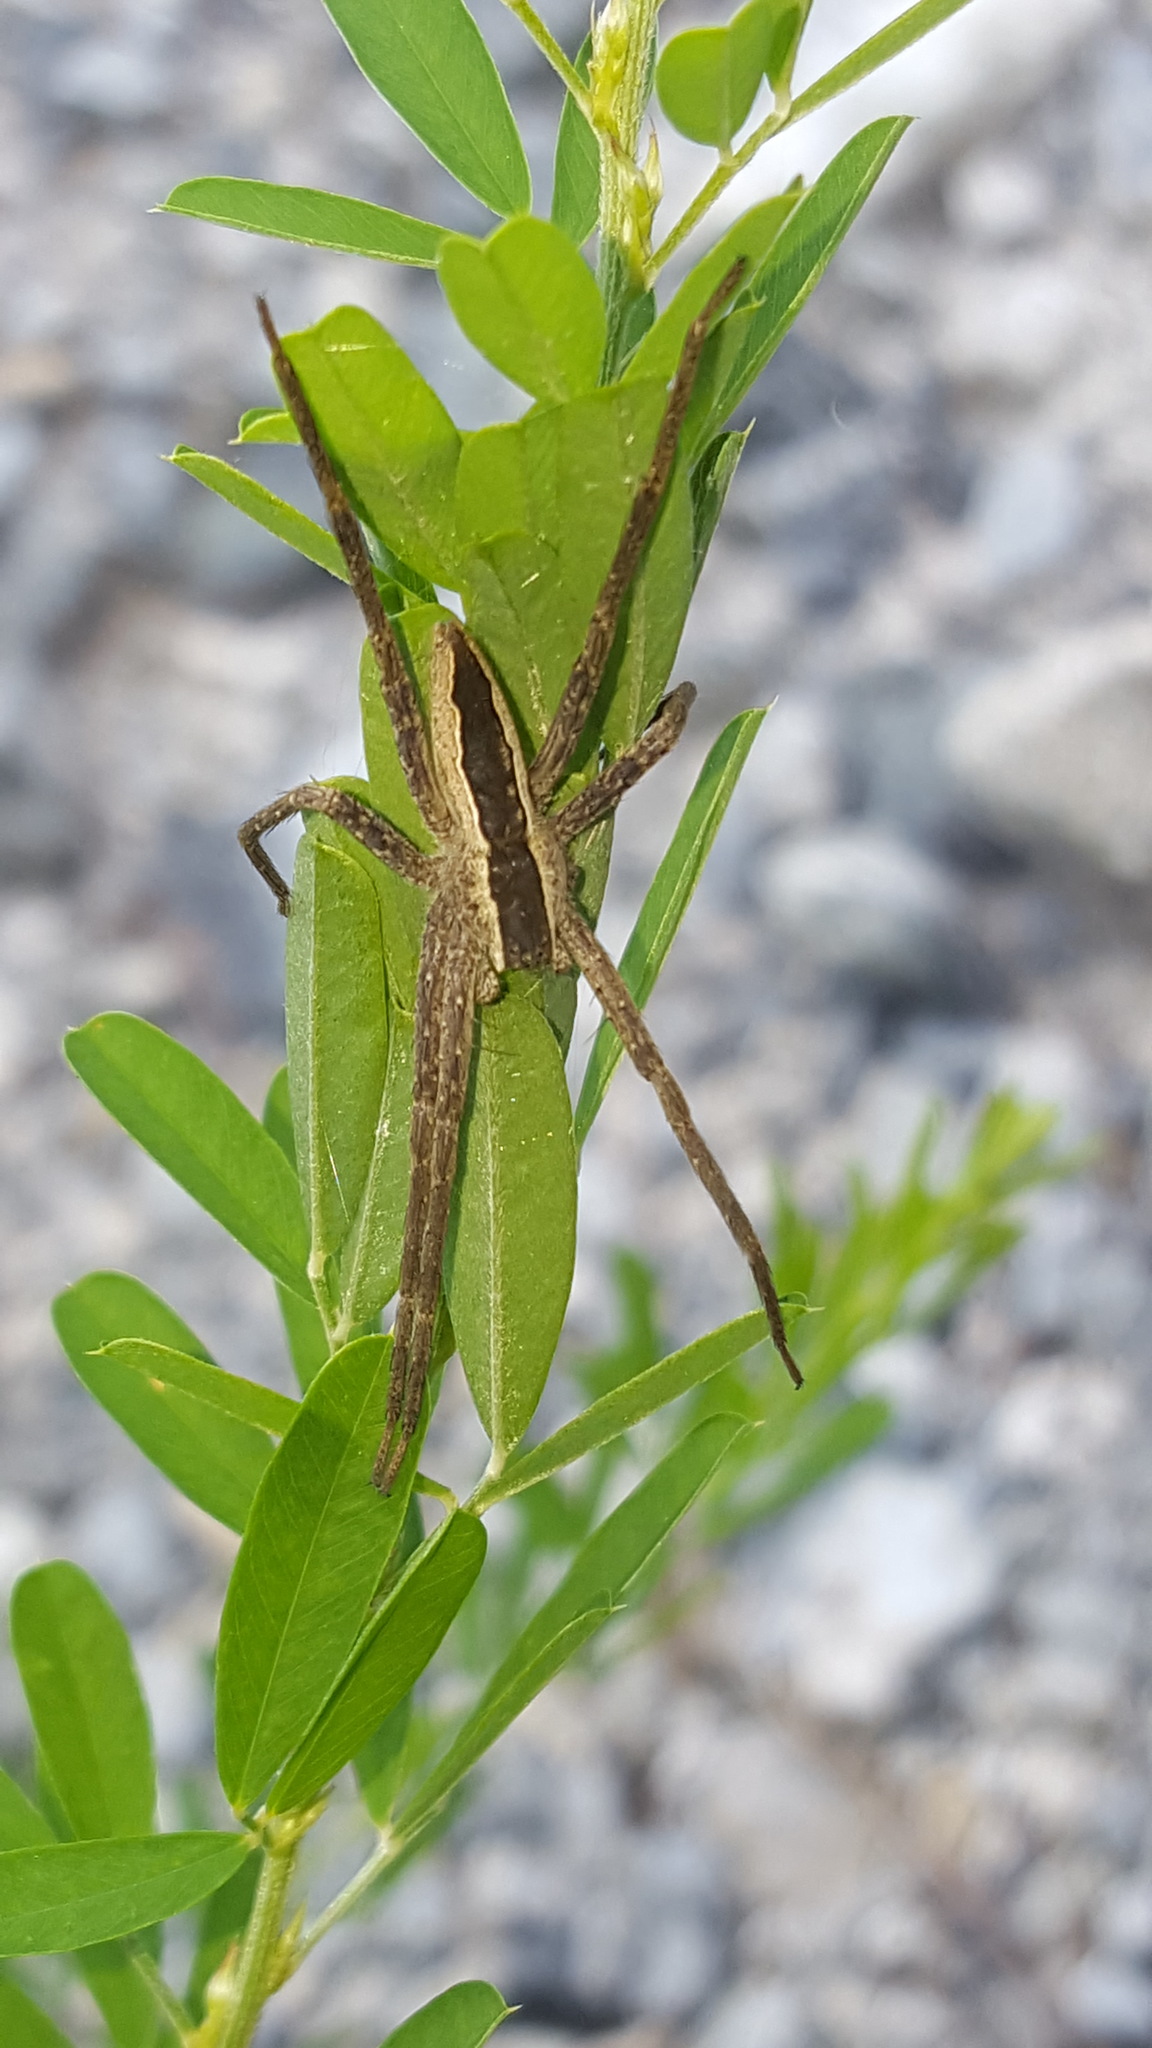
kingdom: Animalia
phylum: Arthropoda
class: Arachnida
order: Araneae
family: Pisauridae
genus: Pisaurina
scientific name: Pisaurina mira
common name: American nursery web spider
